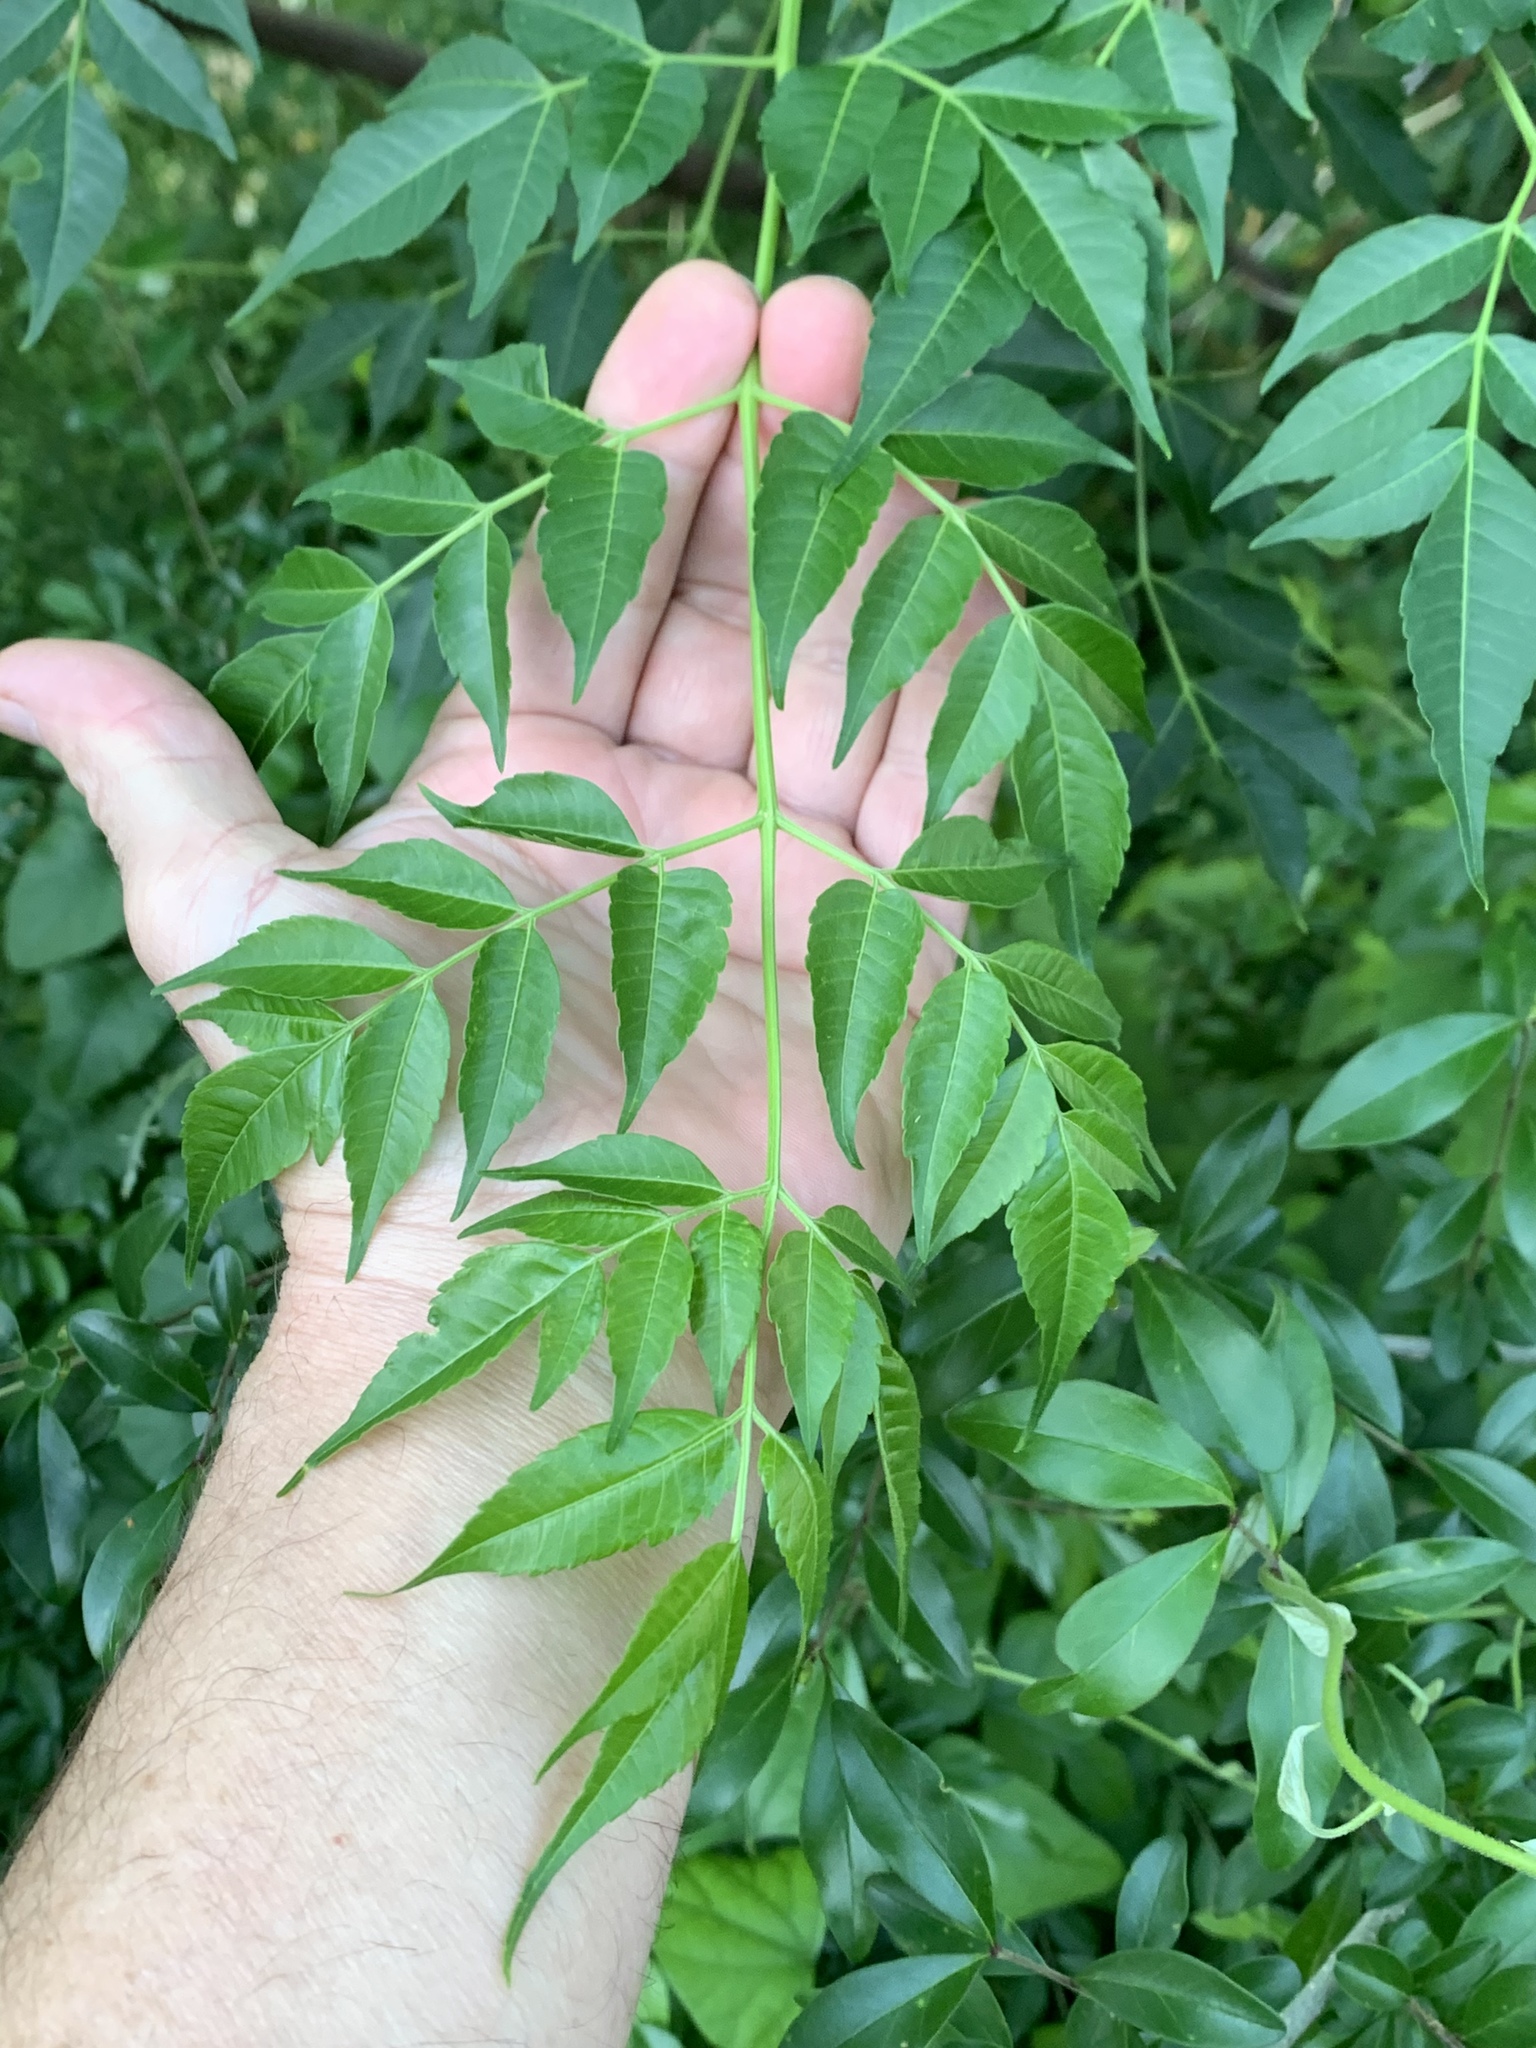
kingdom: Plantae
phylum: Tracheophyta
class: Magnoliopsida
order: Sapindales
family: Meliaceae
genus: Melia
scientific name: Melia azedarach
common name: Chinaberrytree
